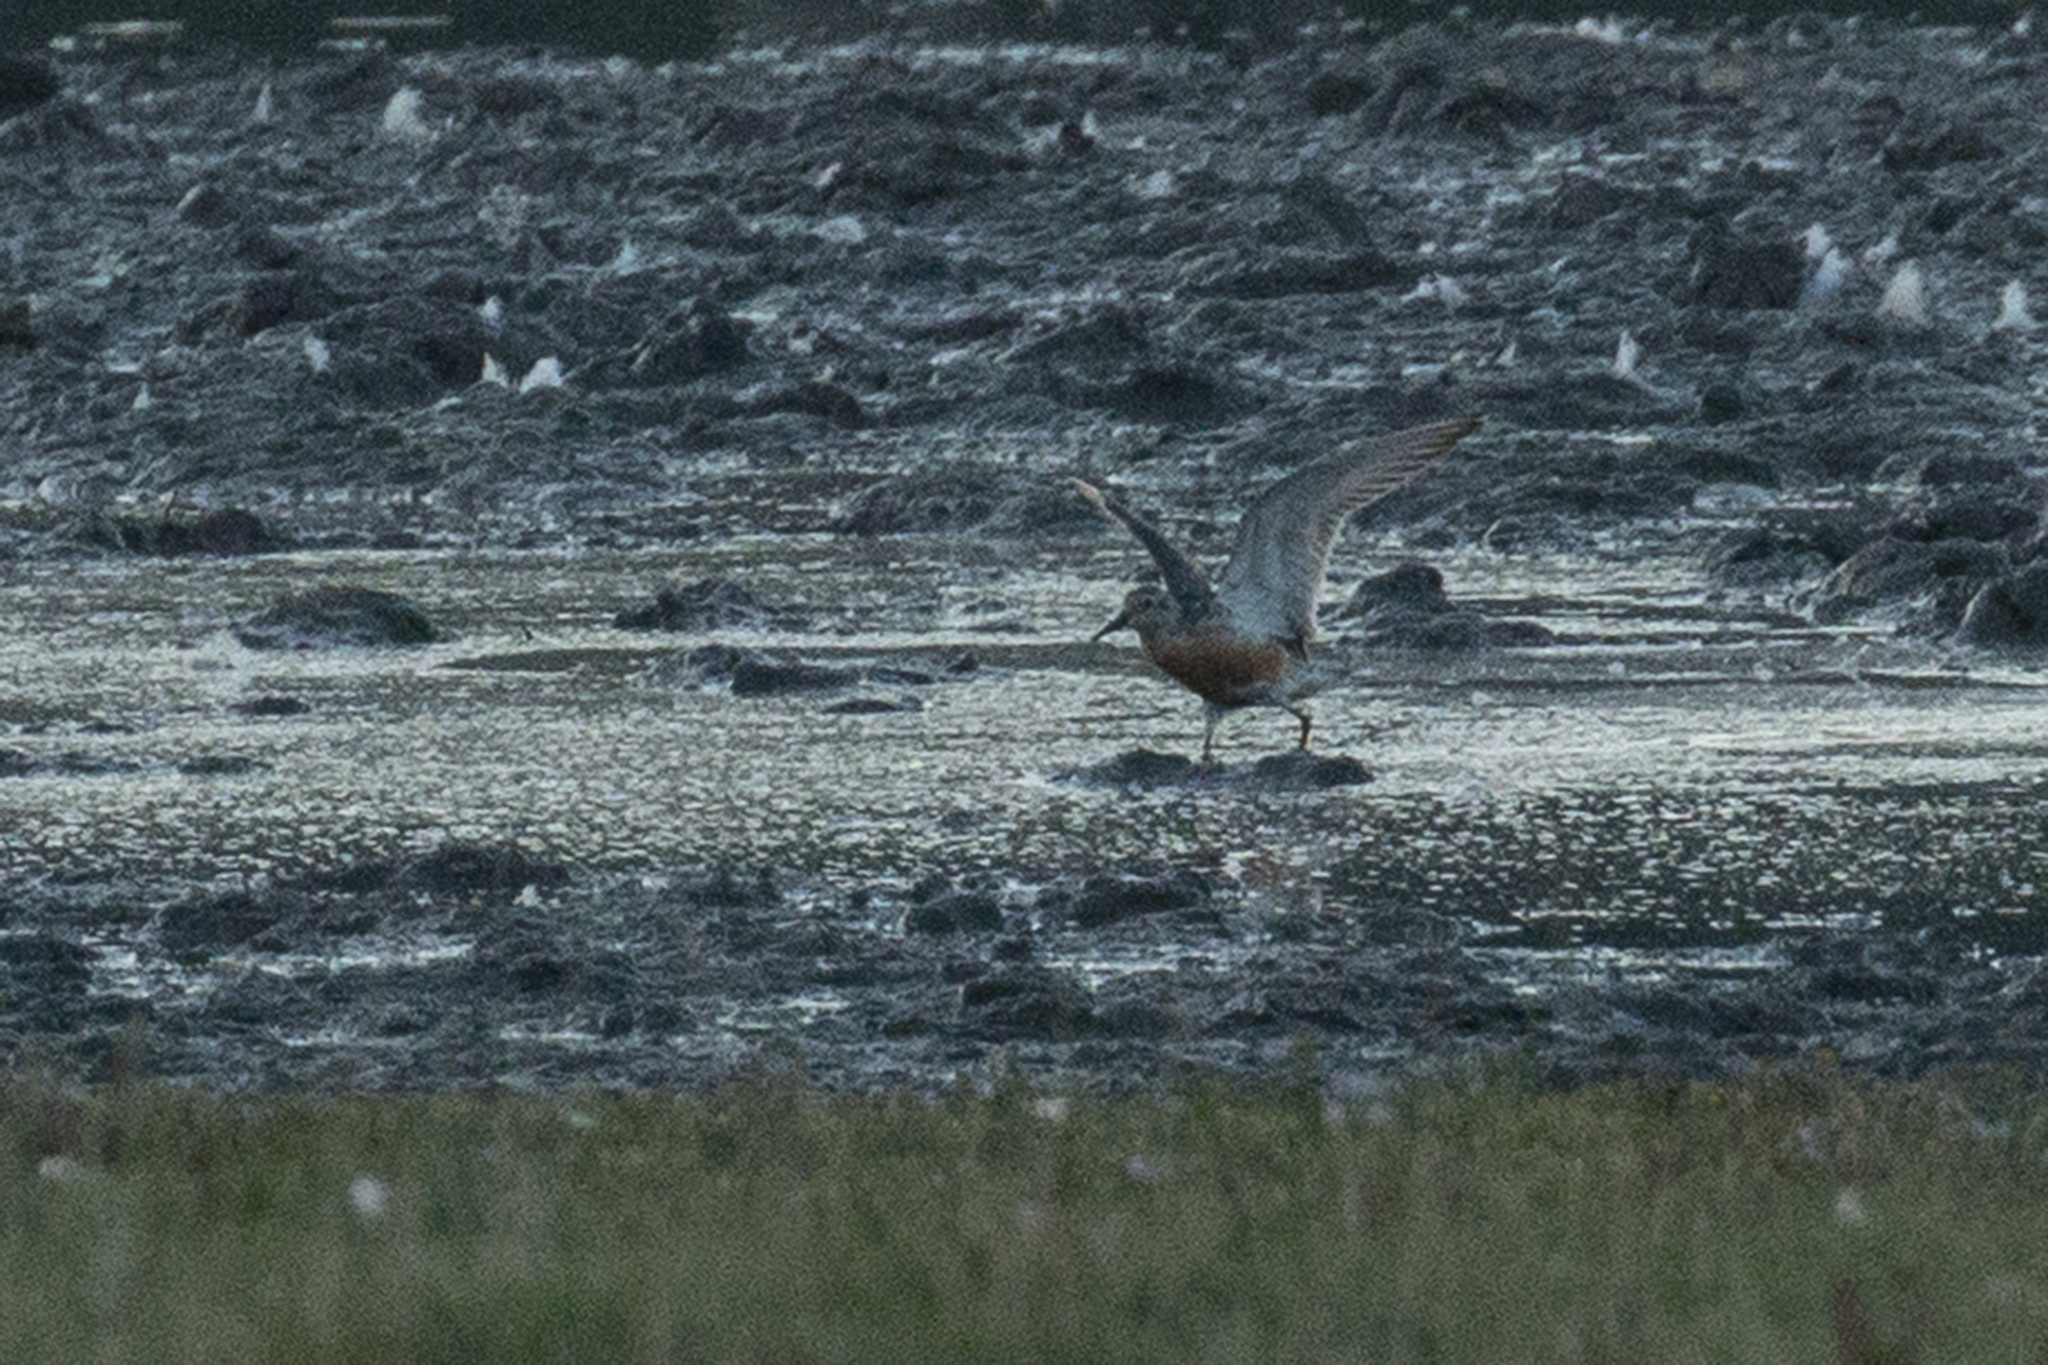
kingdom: Animalia
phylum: Chordata
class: Aves
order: Charadriiformes
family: Scolopacidae
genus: Calidris
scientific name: Calidris canutus
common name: Red knot
